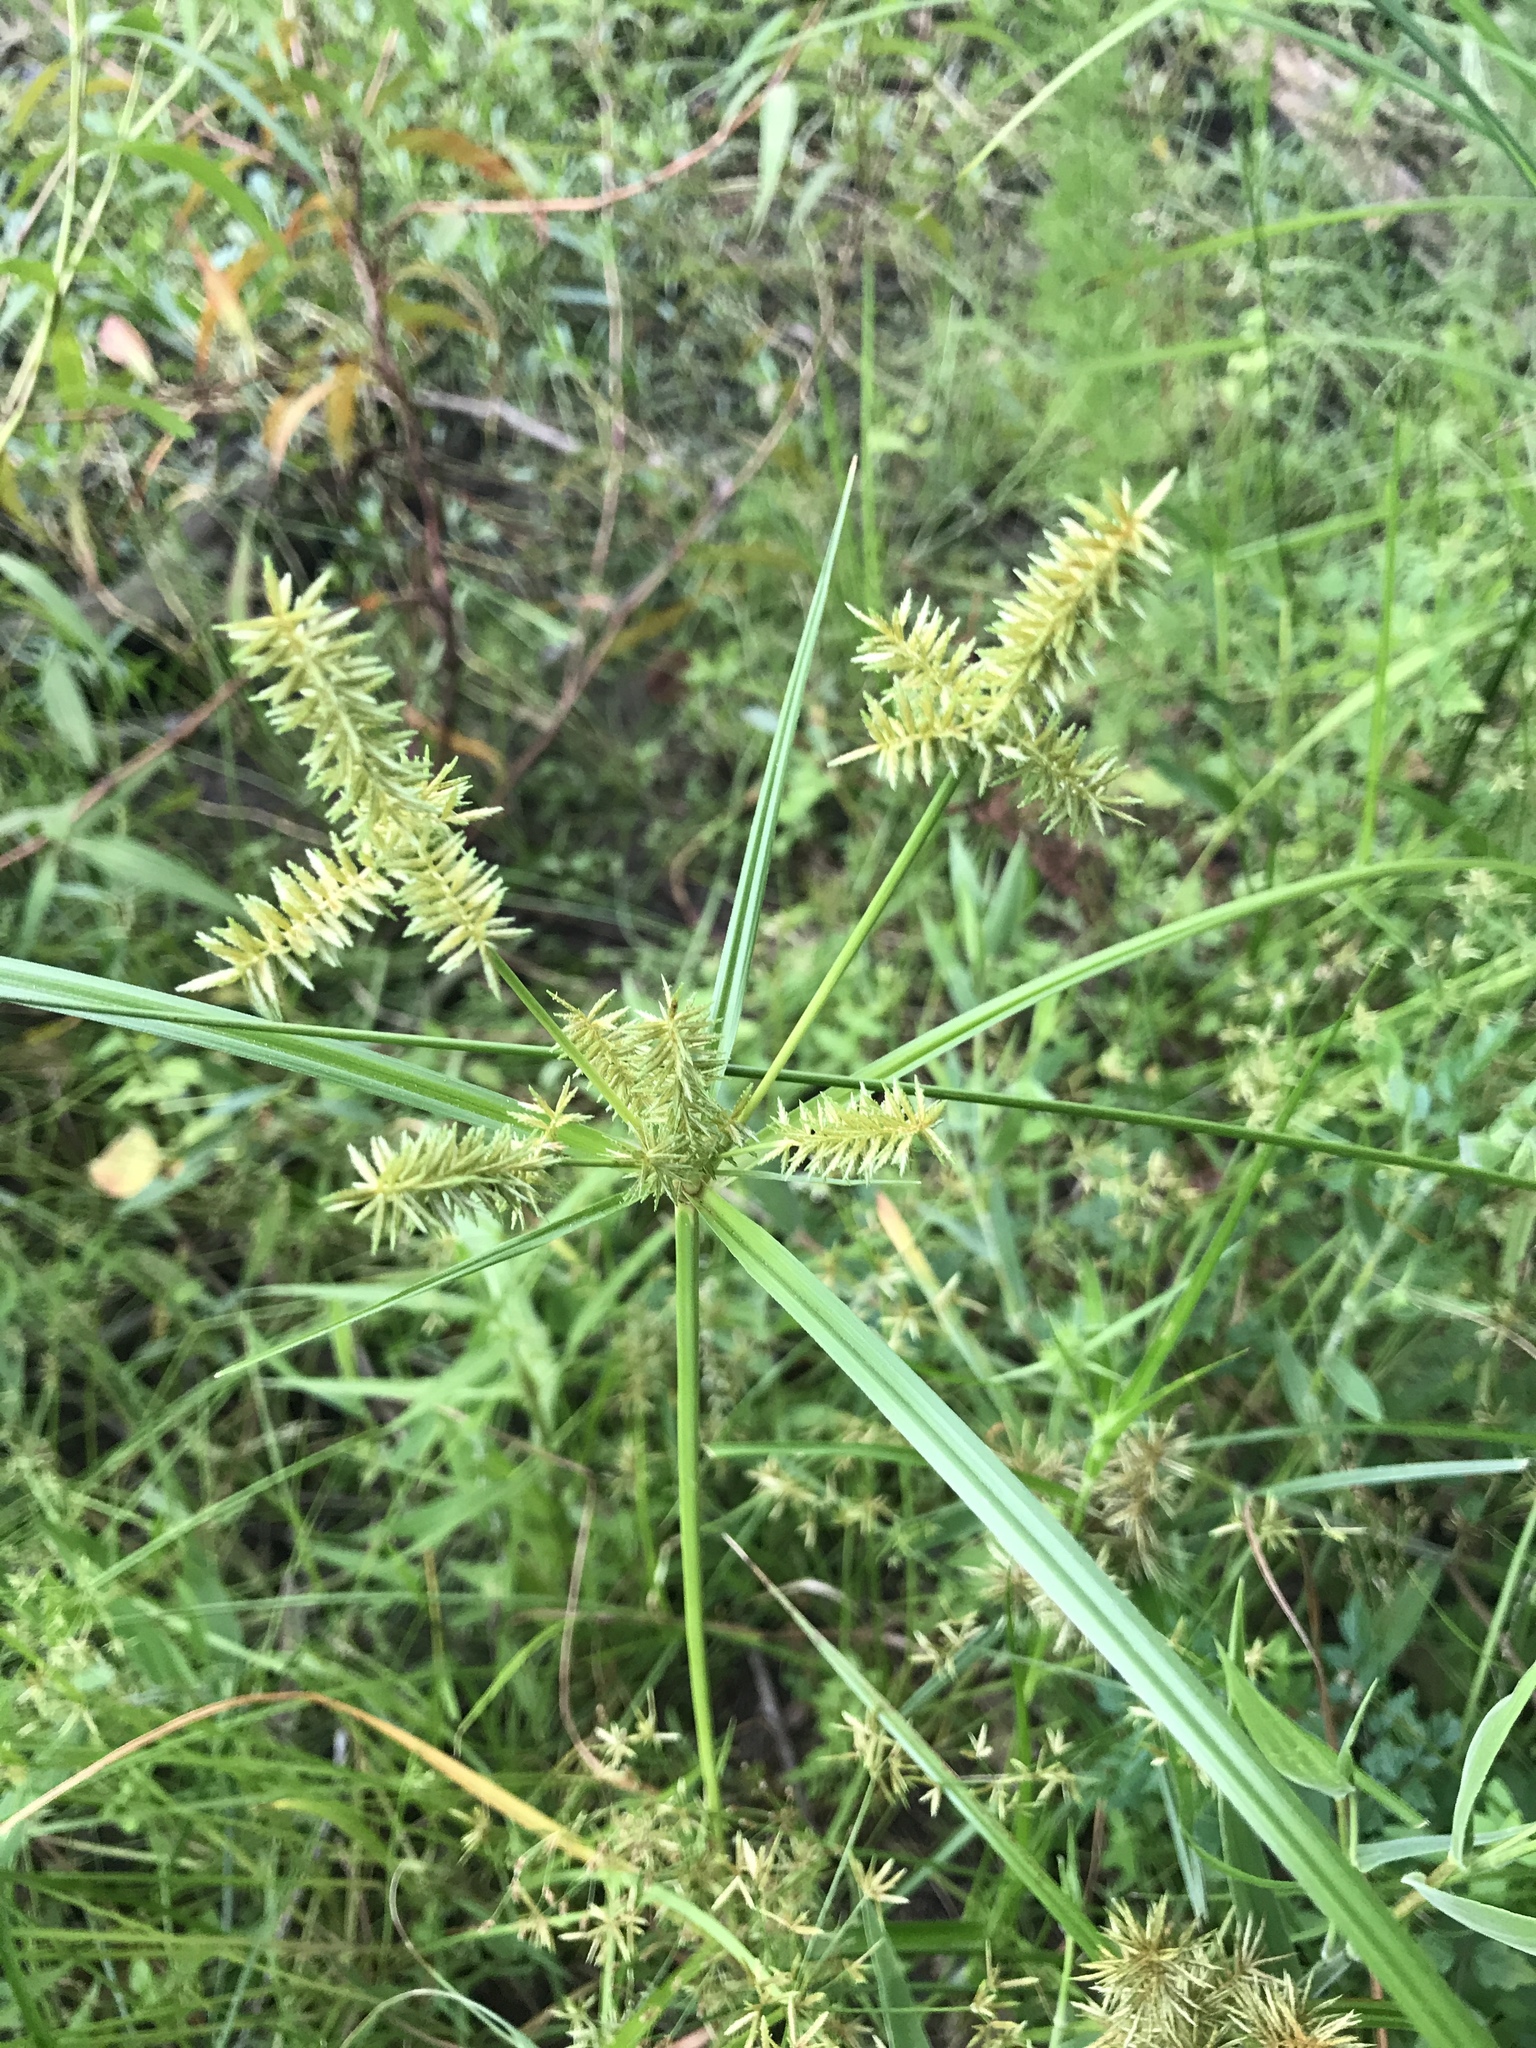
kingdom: Plantae
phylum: Tracheophyta
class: Liliopsida
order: Poales
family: Cyperaceae
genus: Cyperus
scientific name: Cyperus erythrorhizos
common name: Red-root flat sedge
